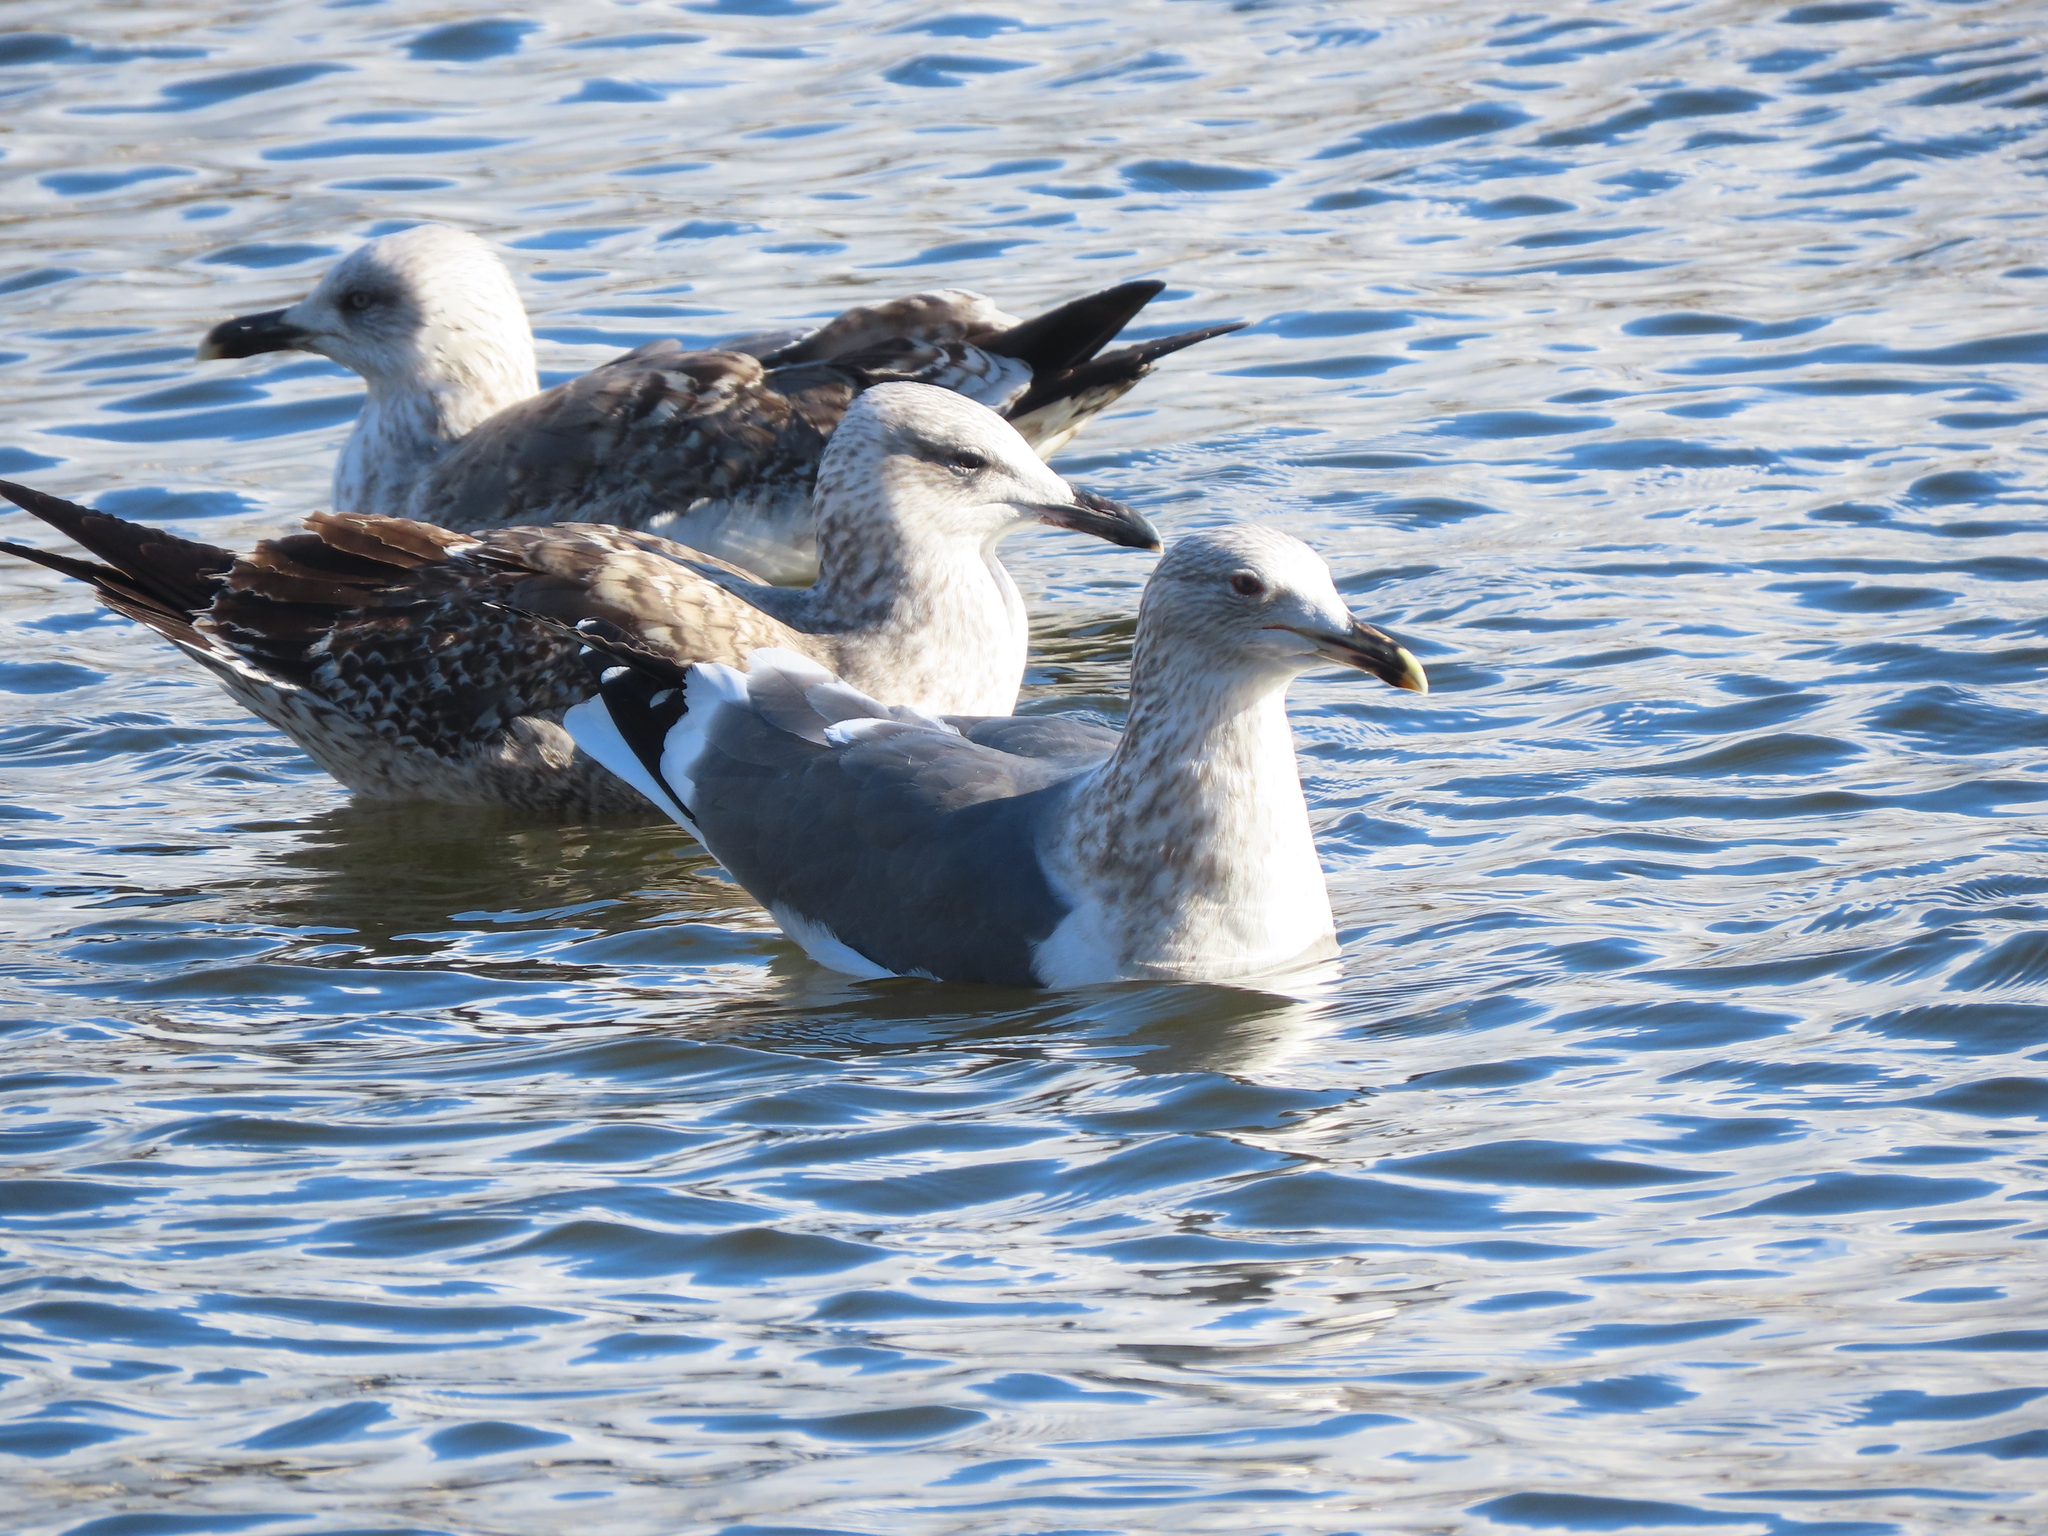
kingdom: Animalia
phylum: Chordata
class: Aves
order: Charadriiformes
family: Laridae
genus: Larus
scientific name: Larus fuscus
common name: Lesser black-backed gull
